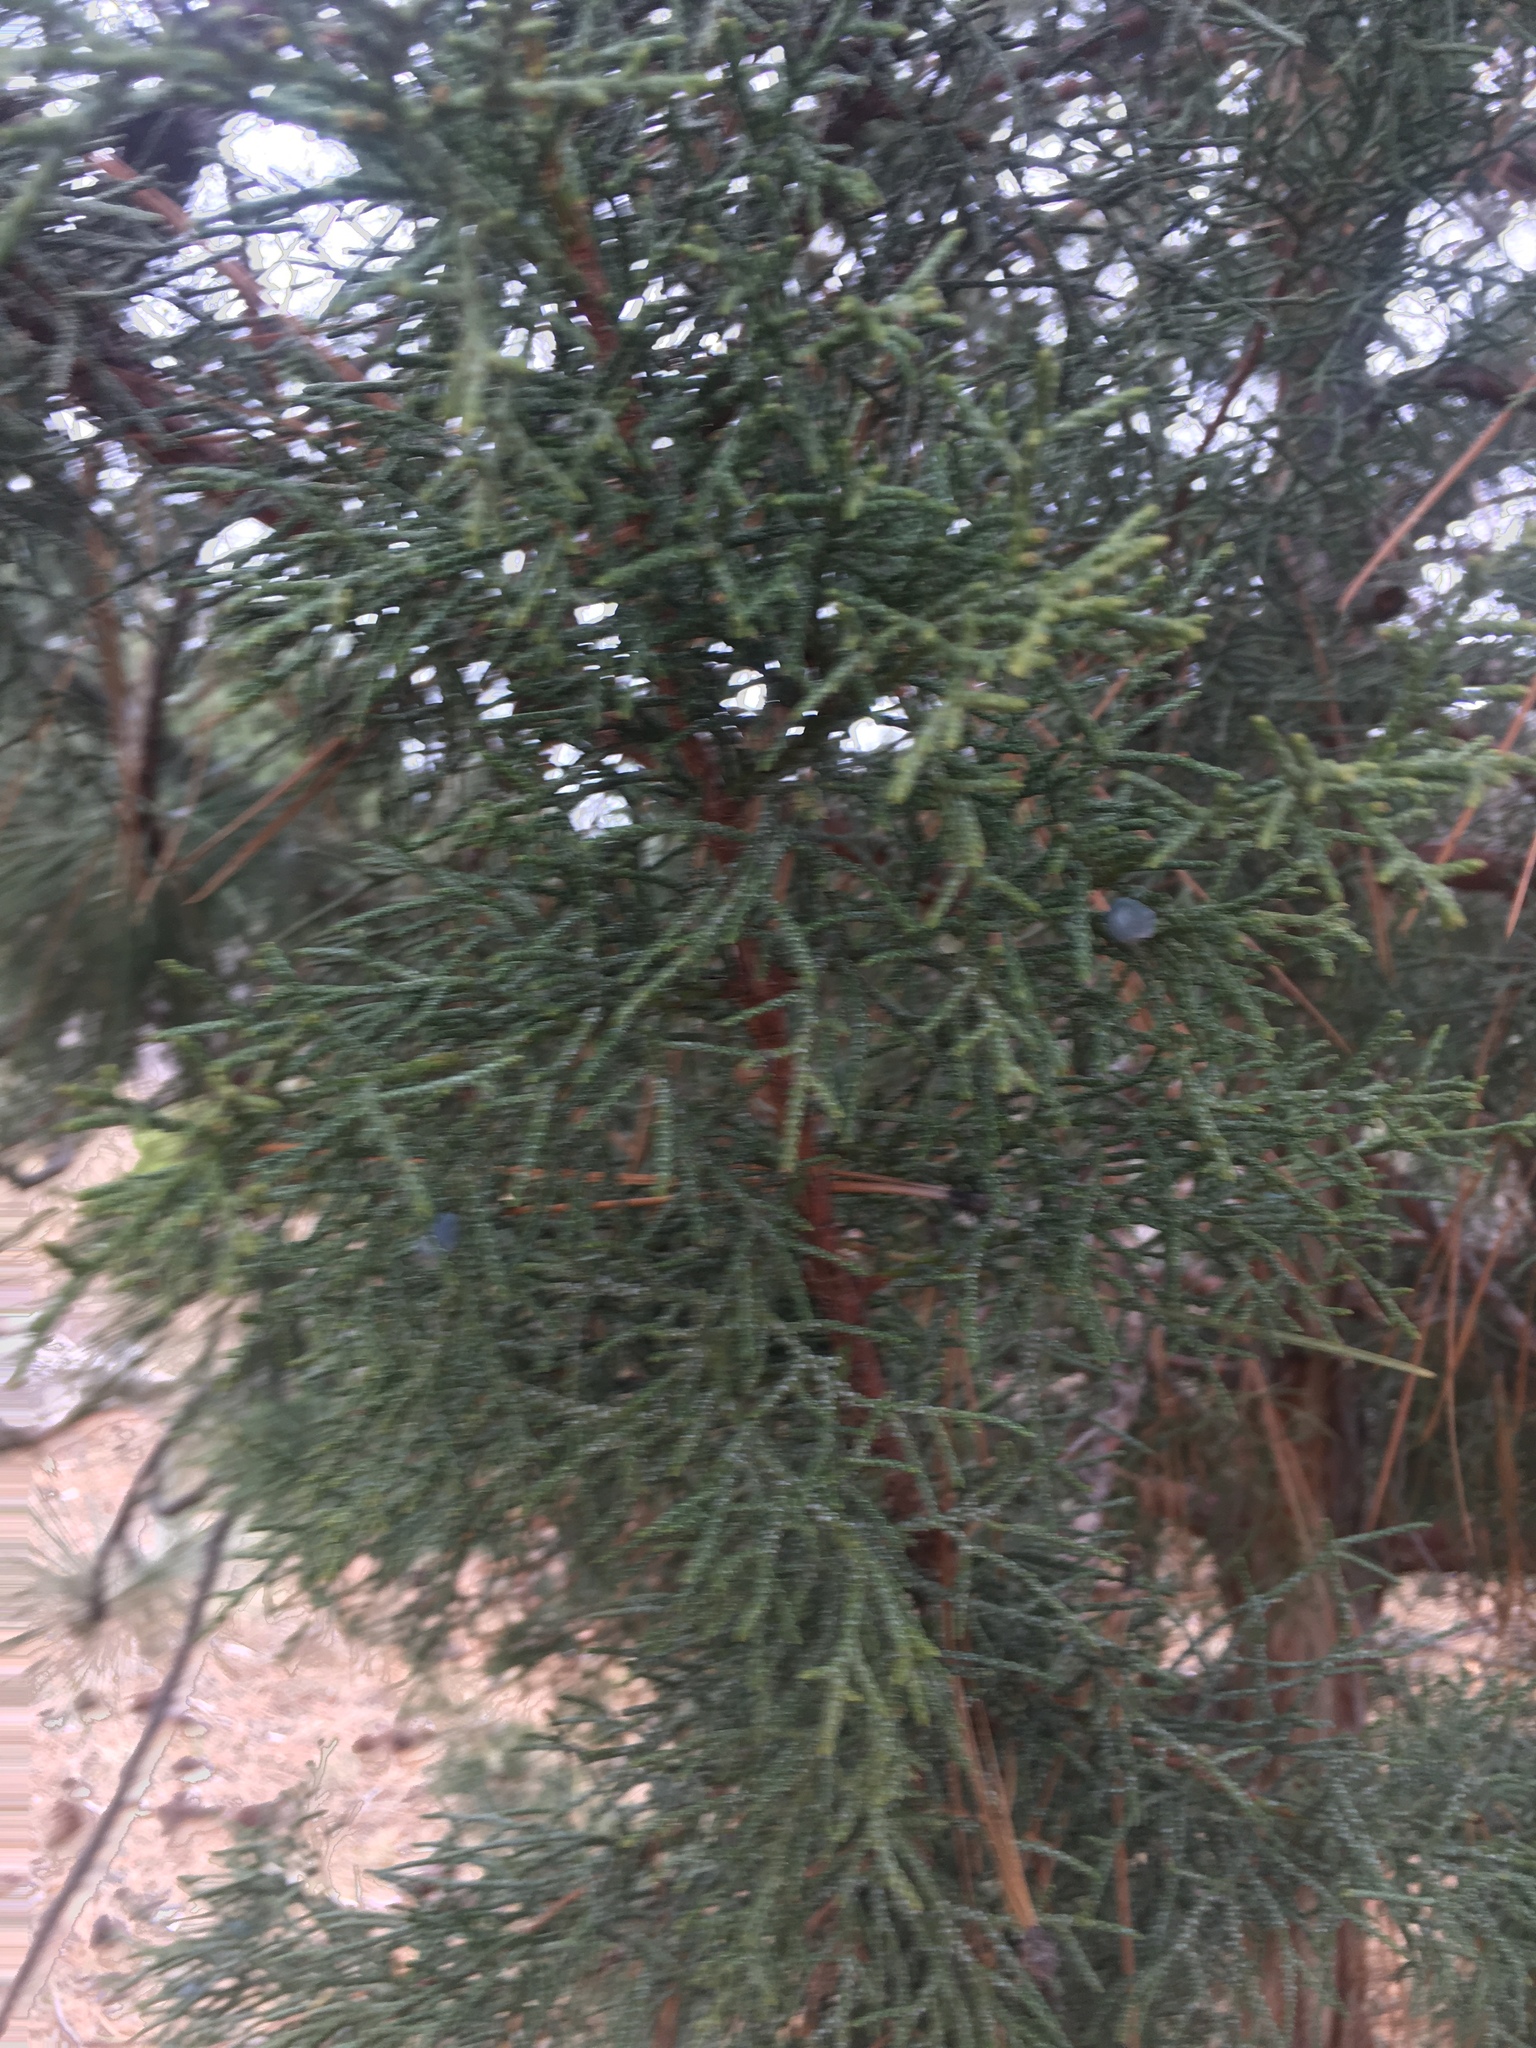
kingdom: Plantae
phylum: Tracheophyta
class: Pinopsida
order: Pinales
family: Cupressaceae
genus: Juniperus
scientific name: Juniperus occidentalis
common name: Western juniper
